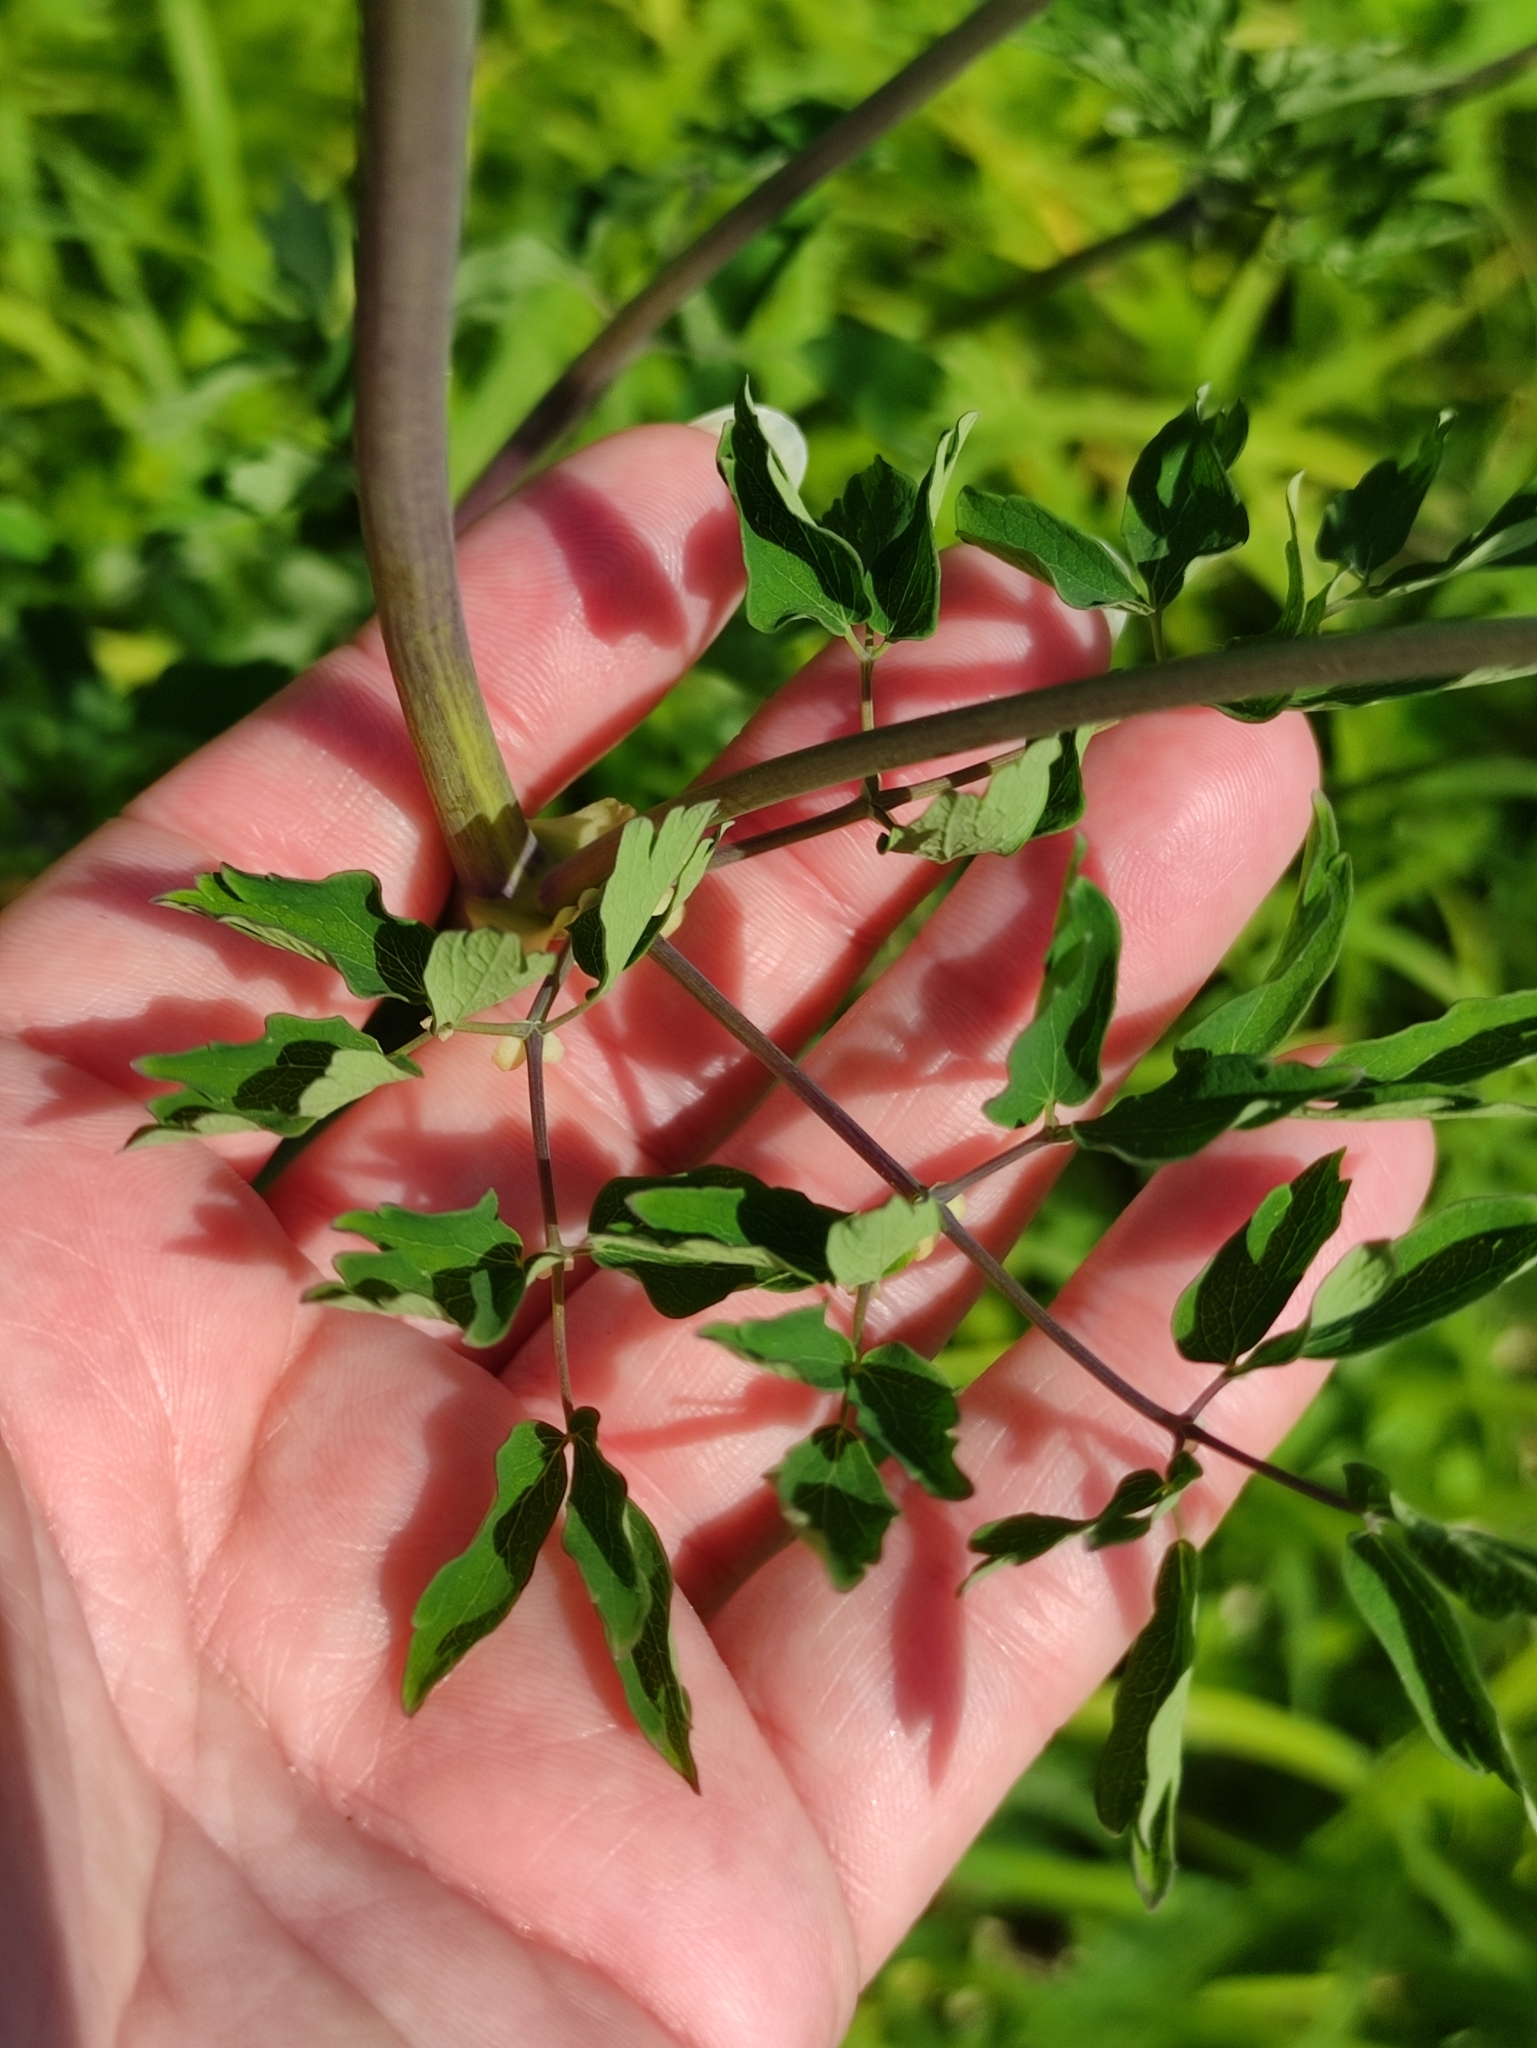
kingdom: Plantae
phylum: Tracheophyta
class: Magnoliopsida
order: Ranunculales
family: Ranunculaceae
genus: Thalictrum
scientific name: Thalictrum aquilegiifolium
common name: French meadow-rue
